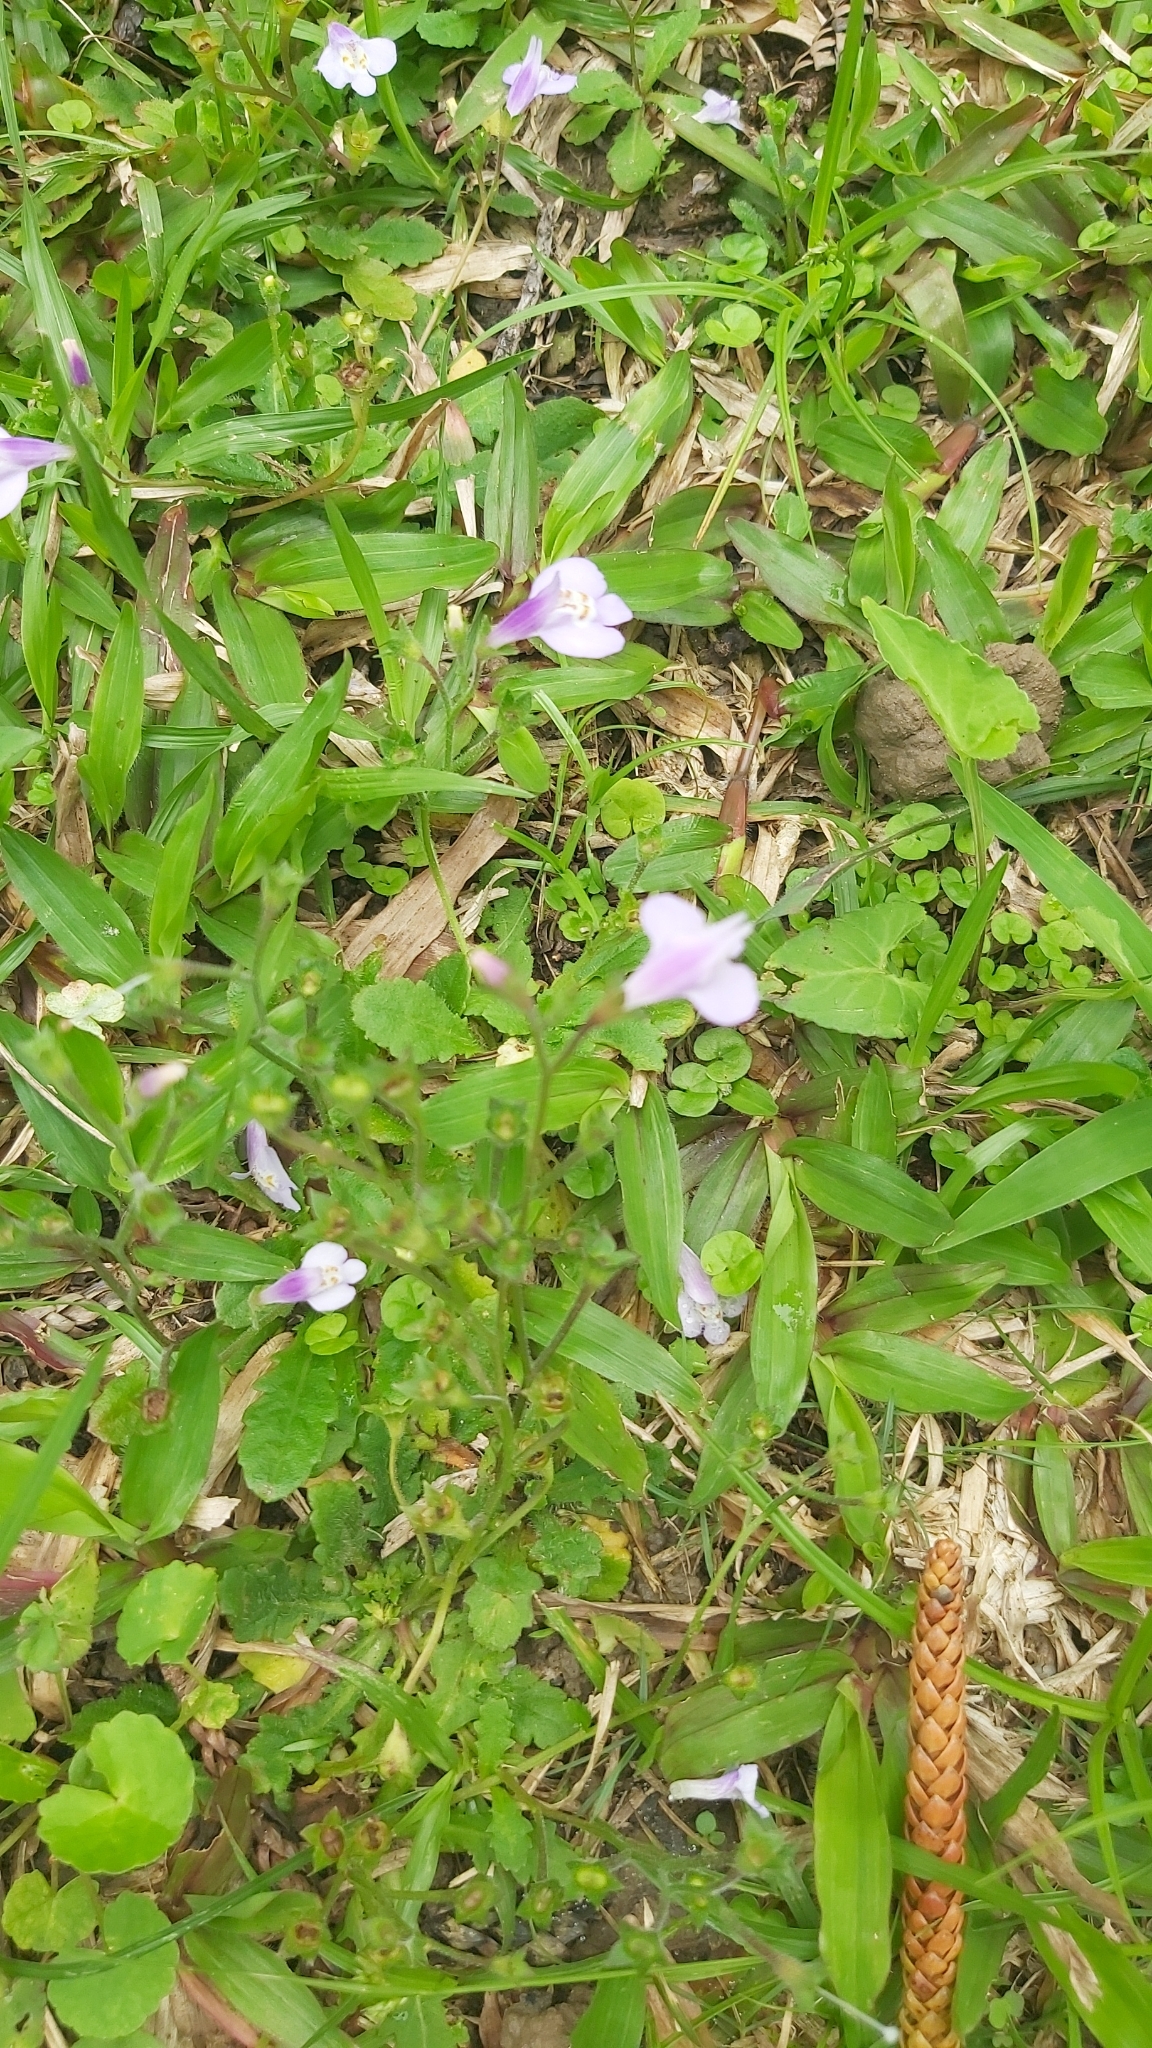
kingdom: Plantae
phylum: Tracheophyta
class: Magnoliopsida
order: Lamiales
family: Mazaceae
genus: Mazus
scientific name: Mazus fauriei
